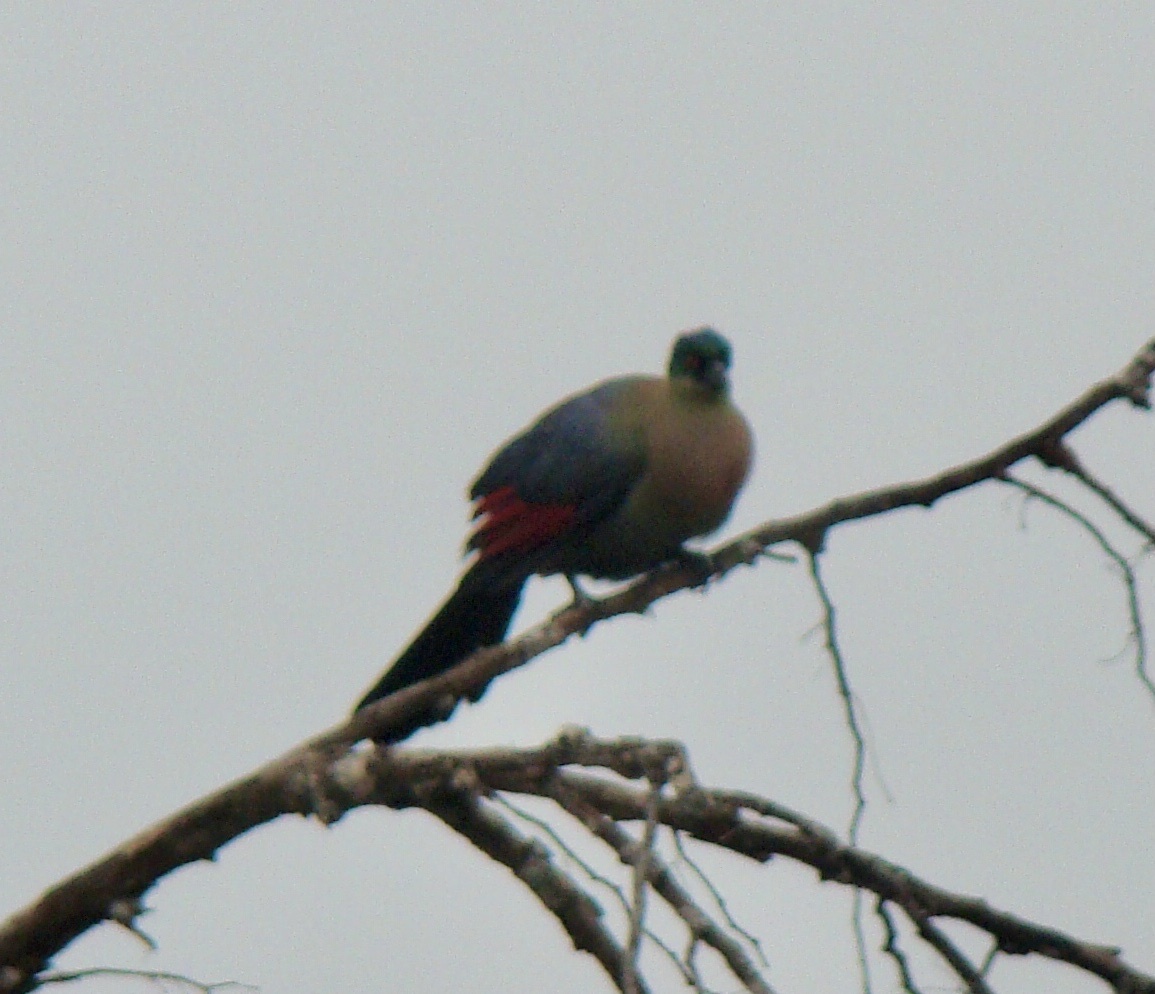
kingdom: Animalia
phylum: Chordata
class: Aves
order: Musophagiformes
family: Musophagidae
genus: Tauraco
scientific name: Tauraco porphyreolophus
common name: Purple-crested turaco
